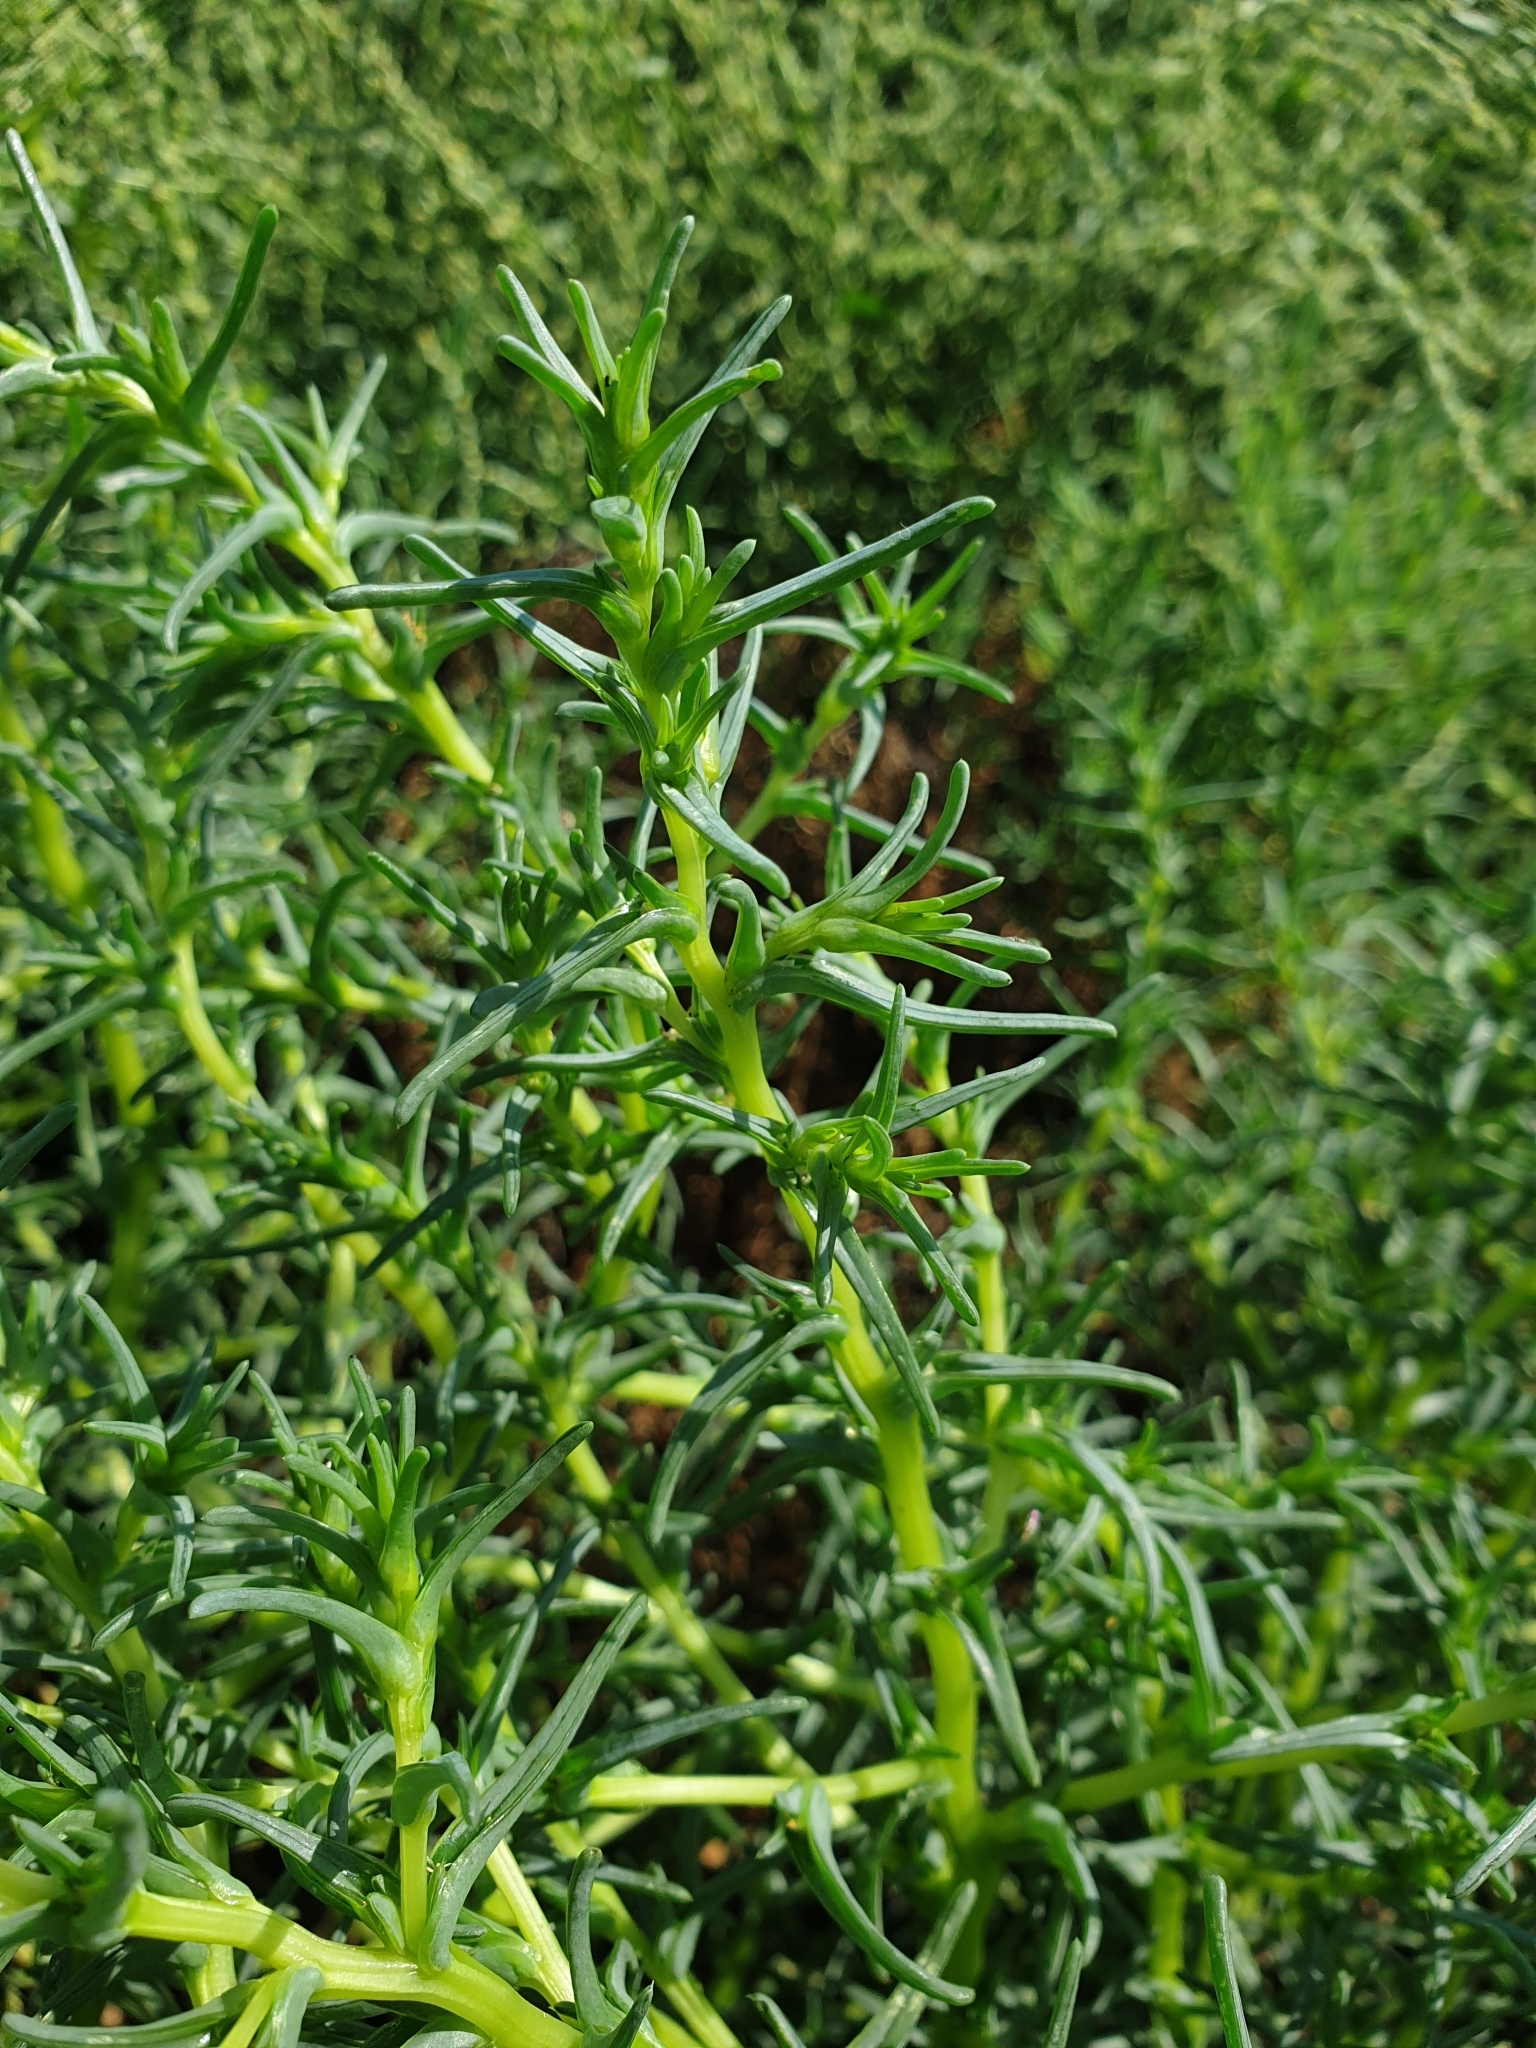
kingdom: Plantae
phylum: Tracheophyta
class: Magnoliopsida
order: Caryophyllales
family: Amaranthaceae
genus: Salsola
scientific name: Salsola soda
